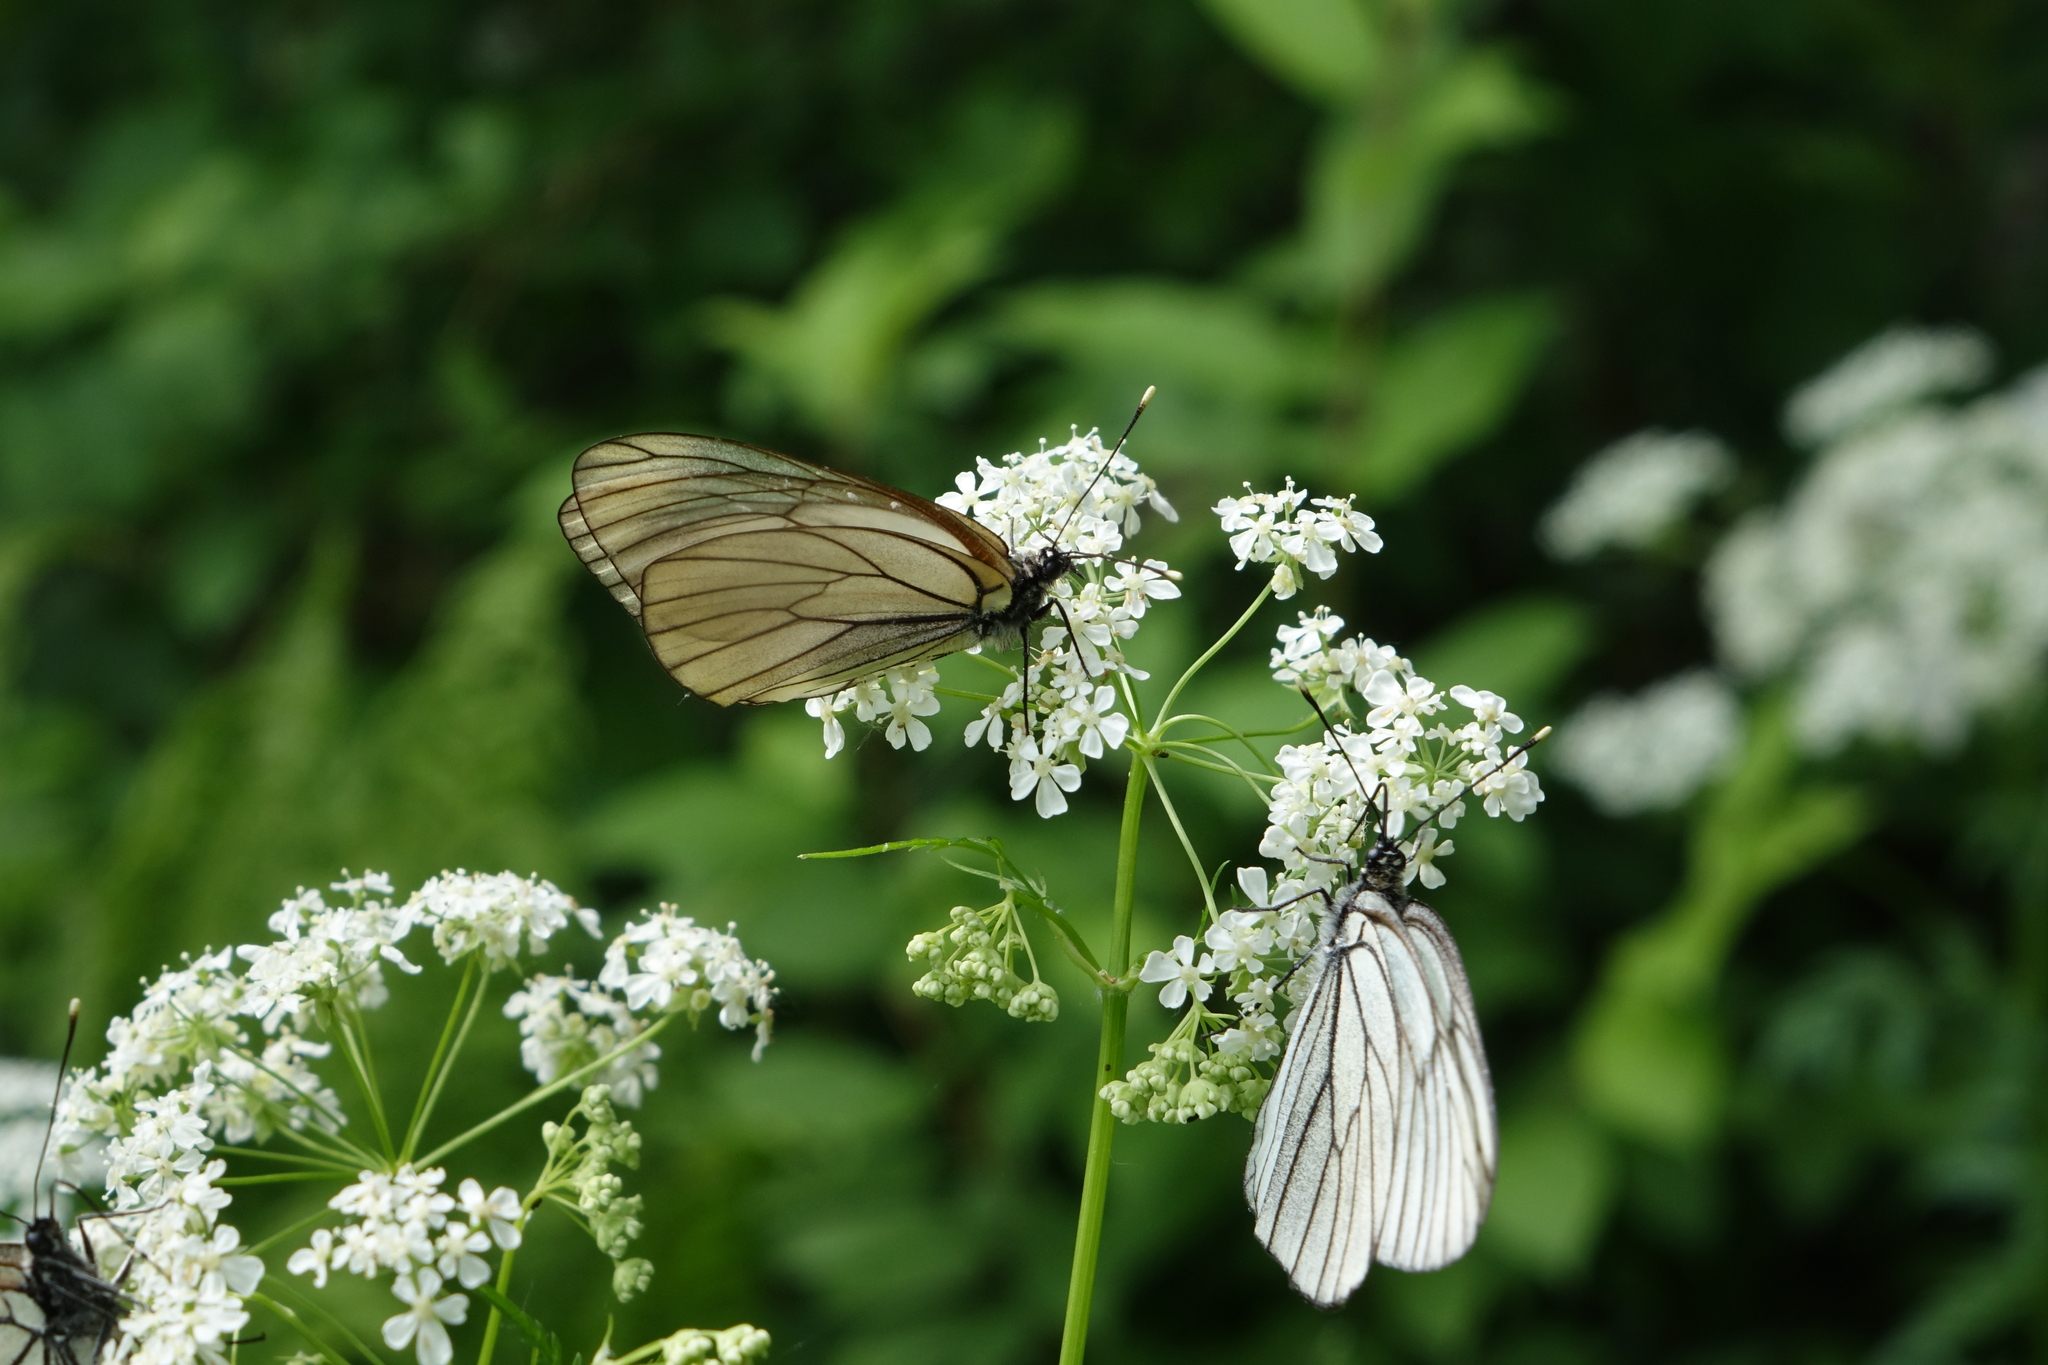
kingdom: Animalia
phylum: Arthropoda
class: Insecta
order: Lepidoptera
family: Pieridae
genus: Aporia
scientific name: Aporia crataegi
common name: Black-veined white
